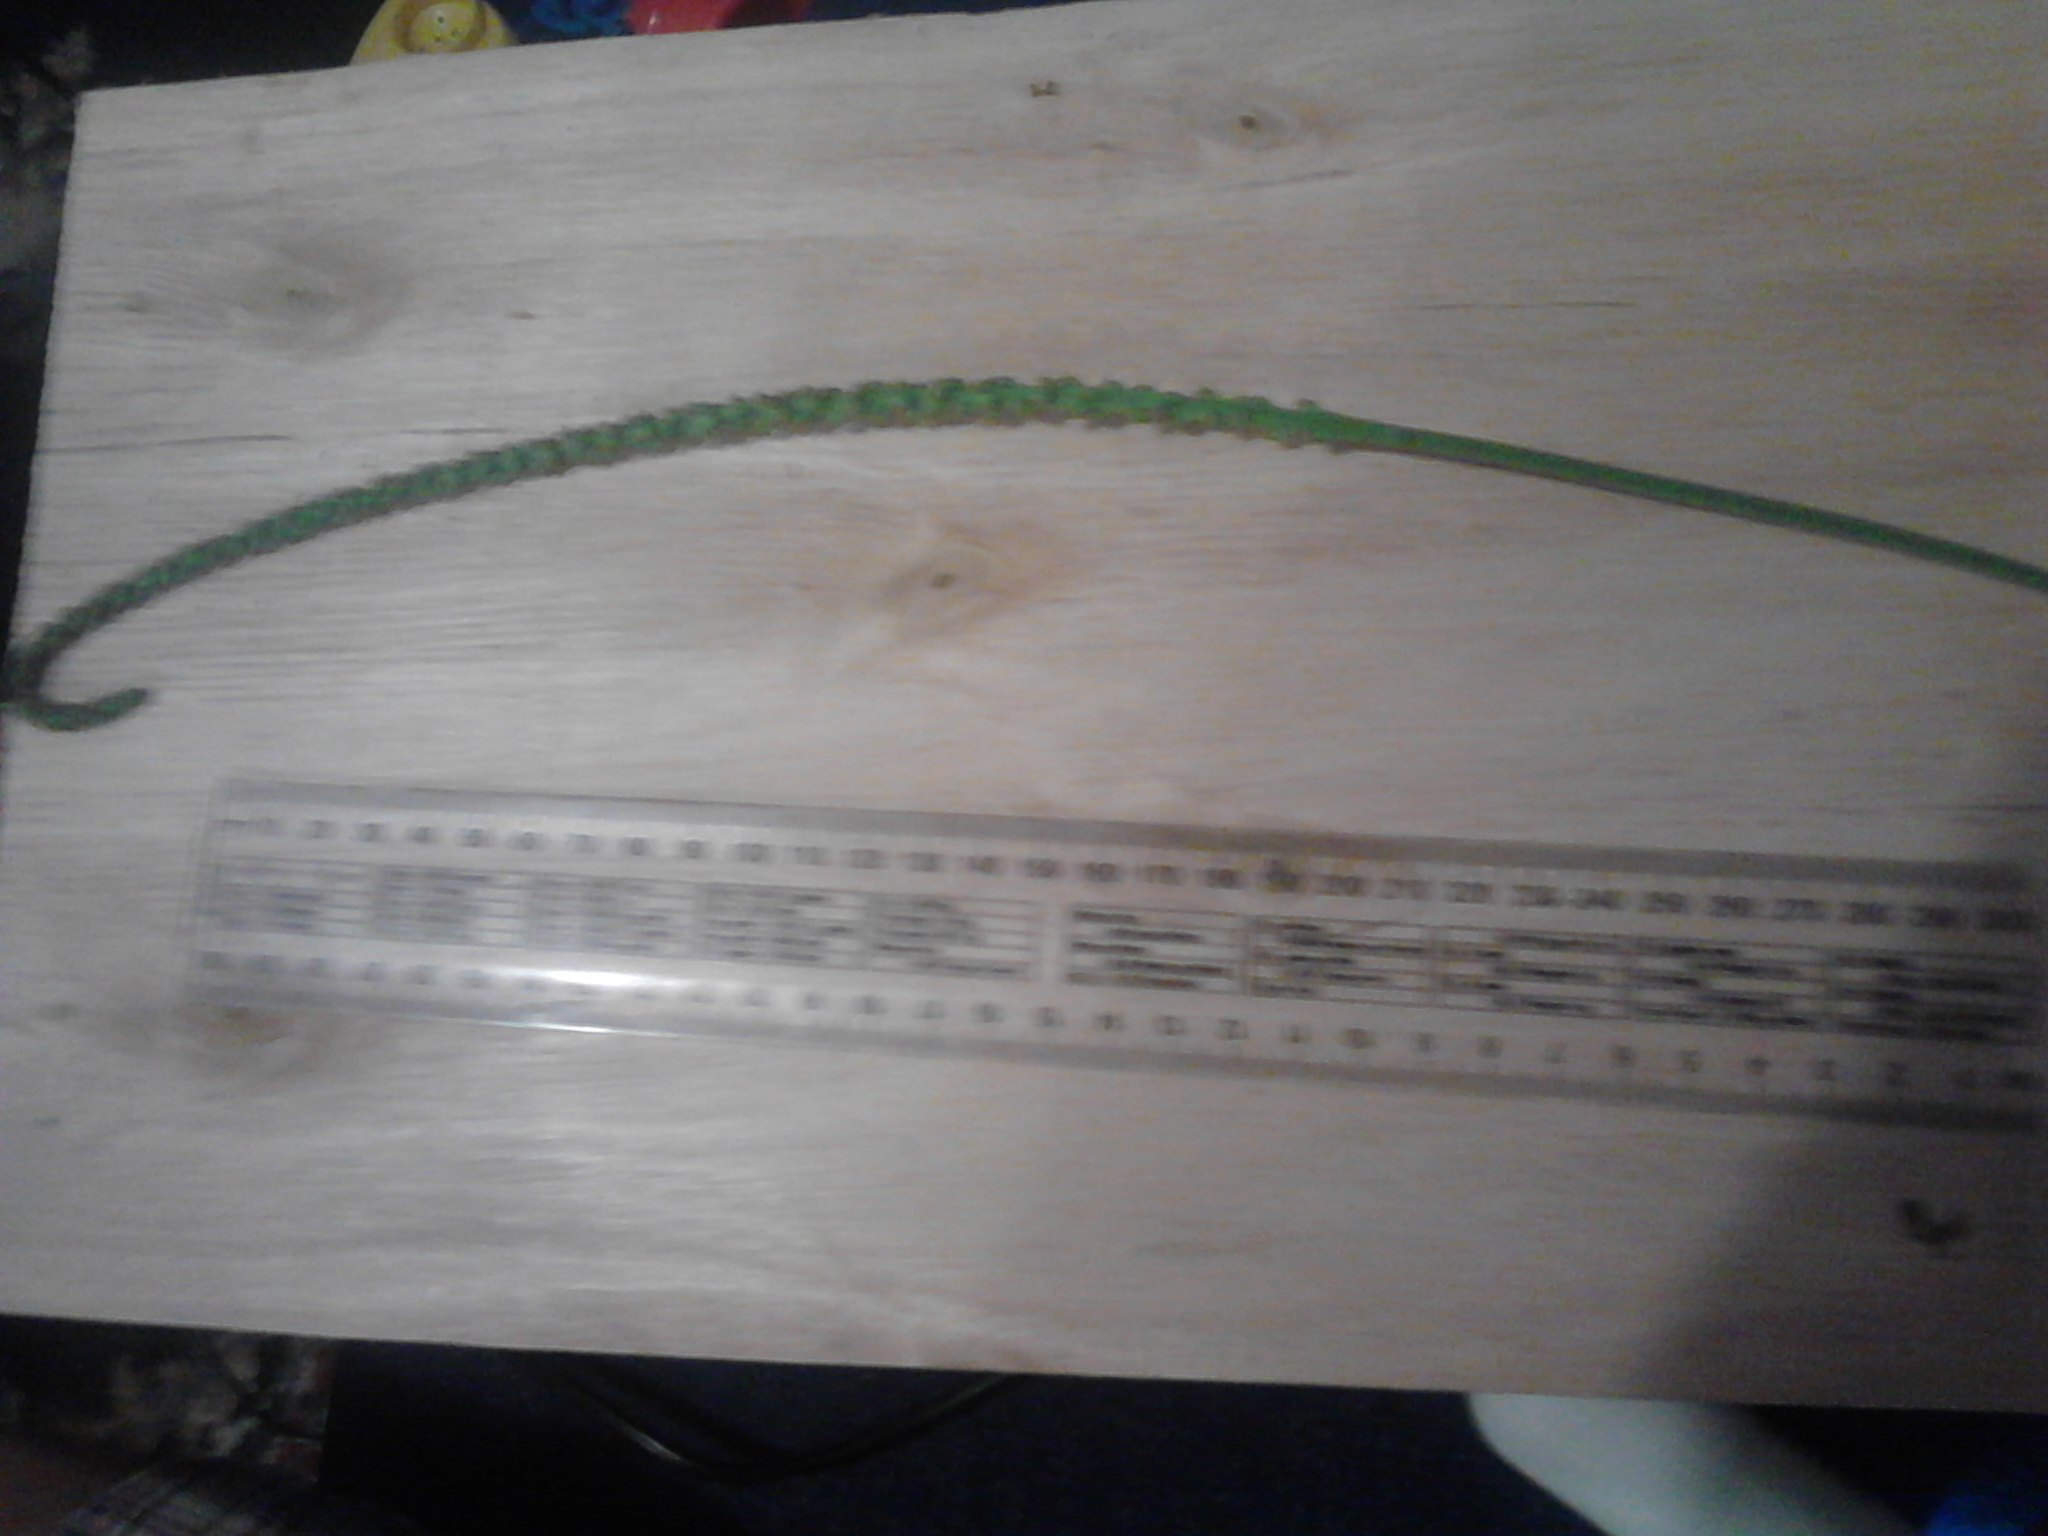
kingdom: Plantae
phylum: Tracheophyta
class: Magnoliopsida
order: Lamiales
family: Plantaginaceae
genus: Plantago
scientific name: Plantago major
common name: Common plantain
